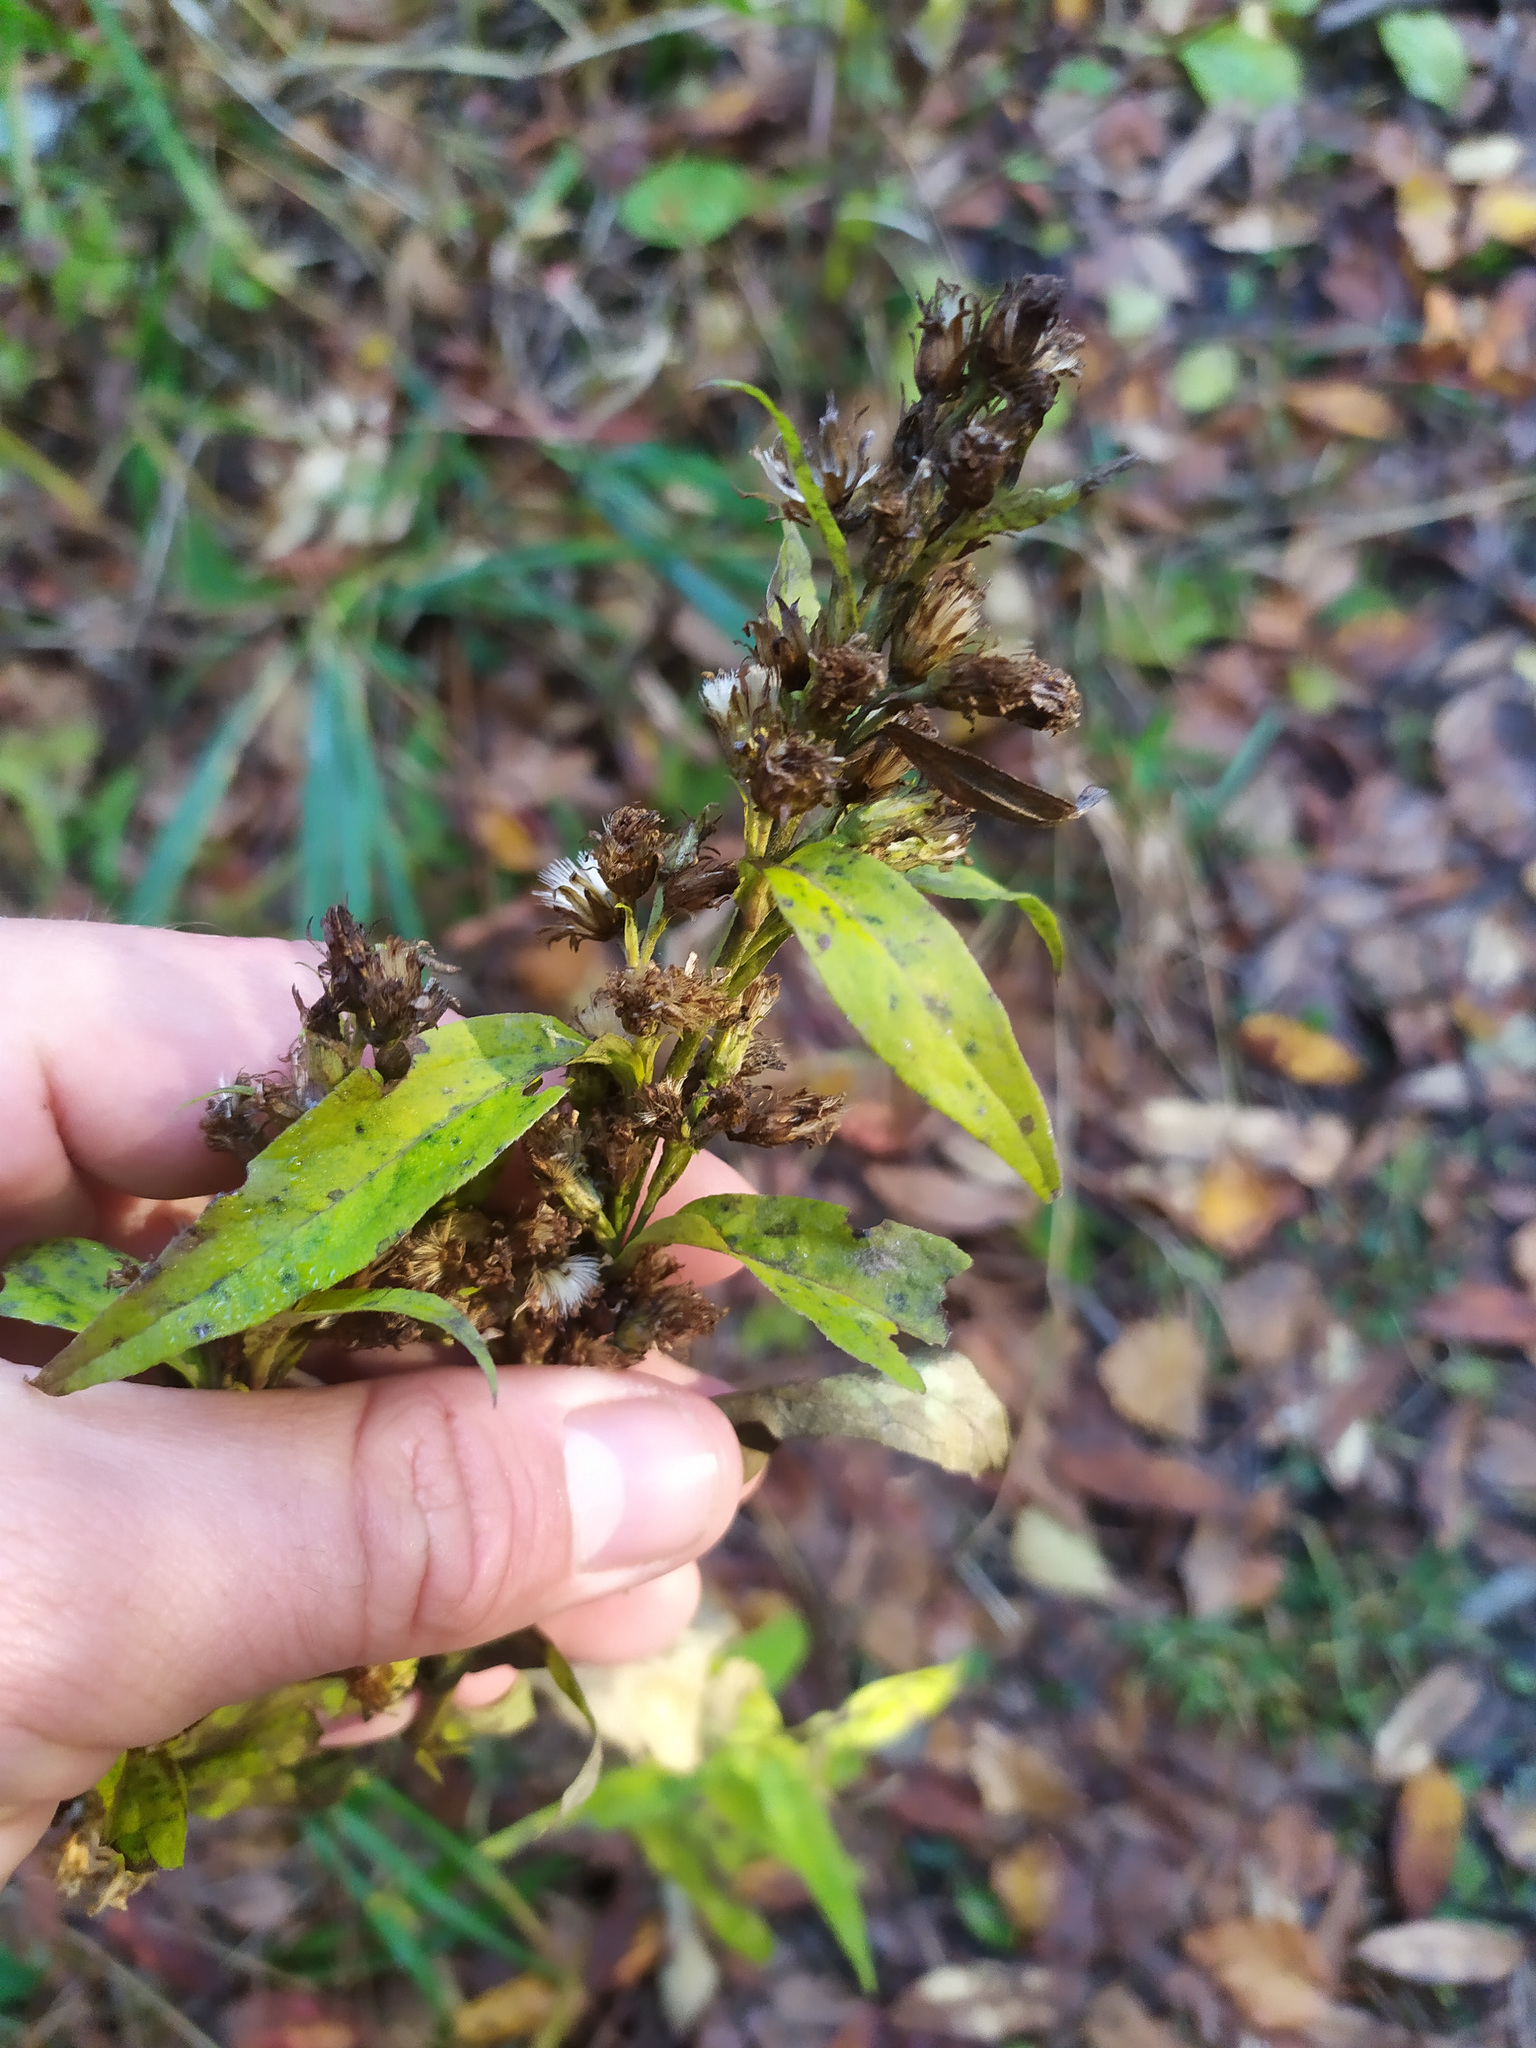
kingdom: Plantae
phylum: Tracheophyta
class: Magnoliopsida
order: Asterales
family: Asteraceae
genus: Solidago
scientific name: Solidago virgaurea
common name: Goldenrod
